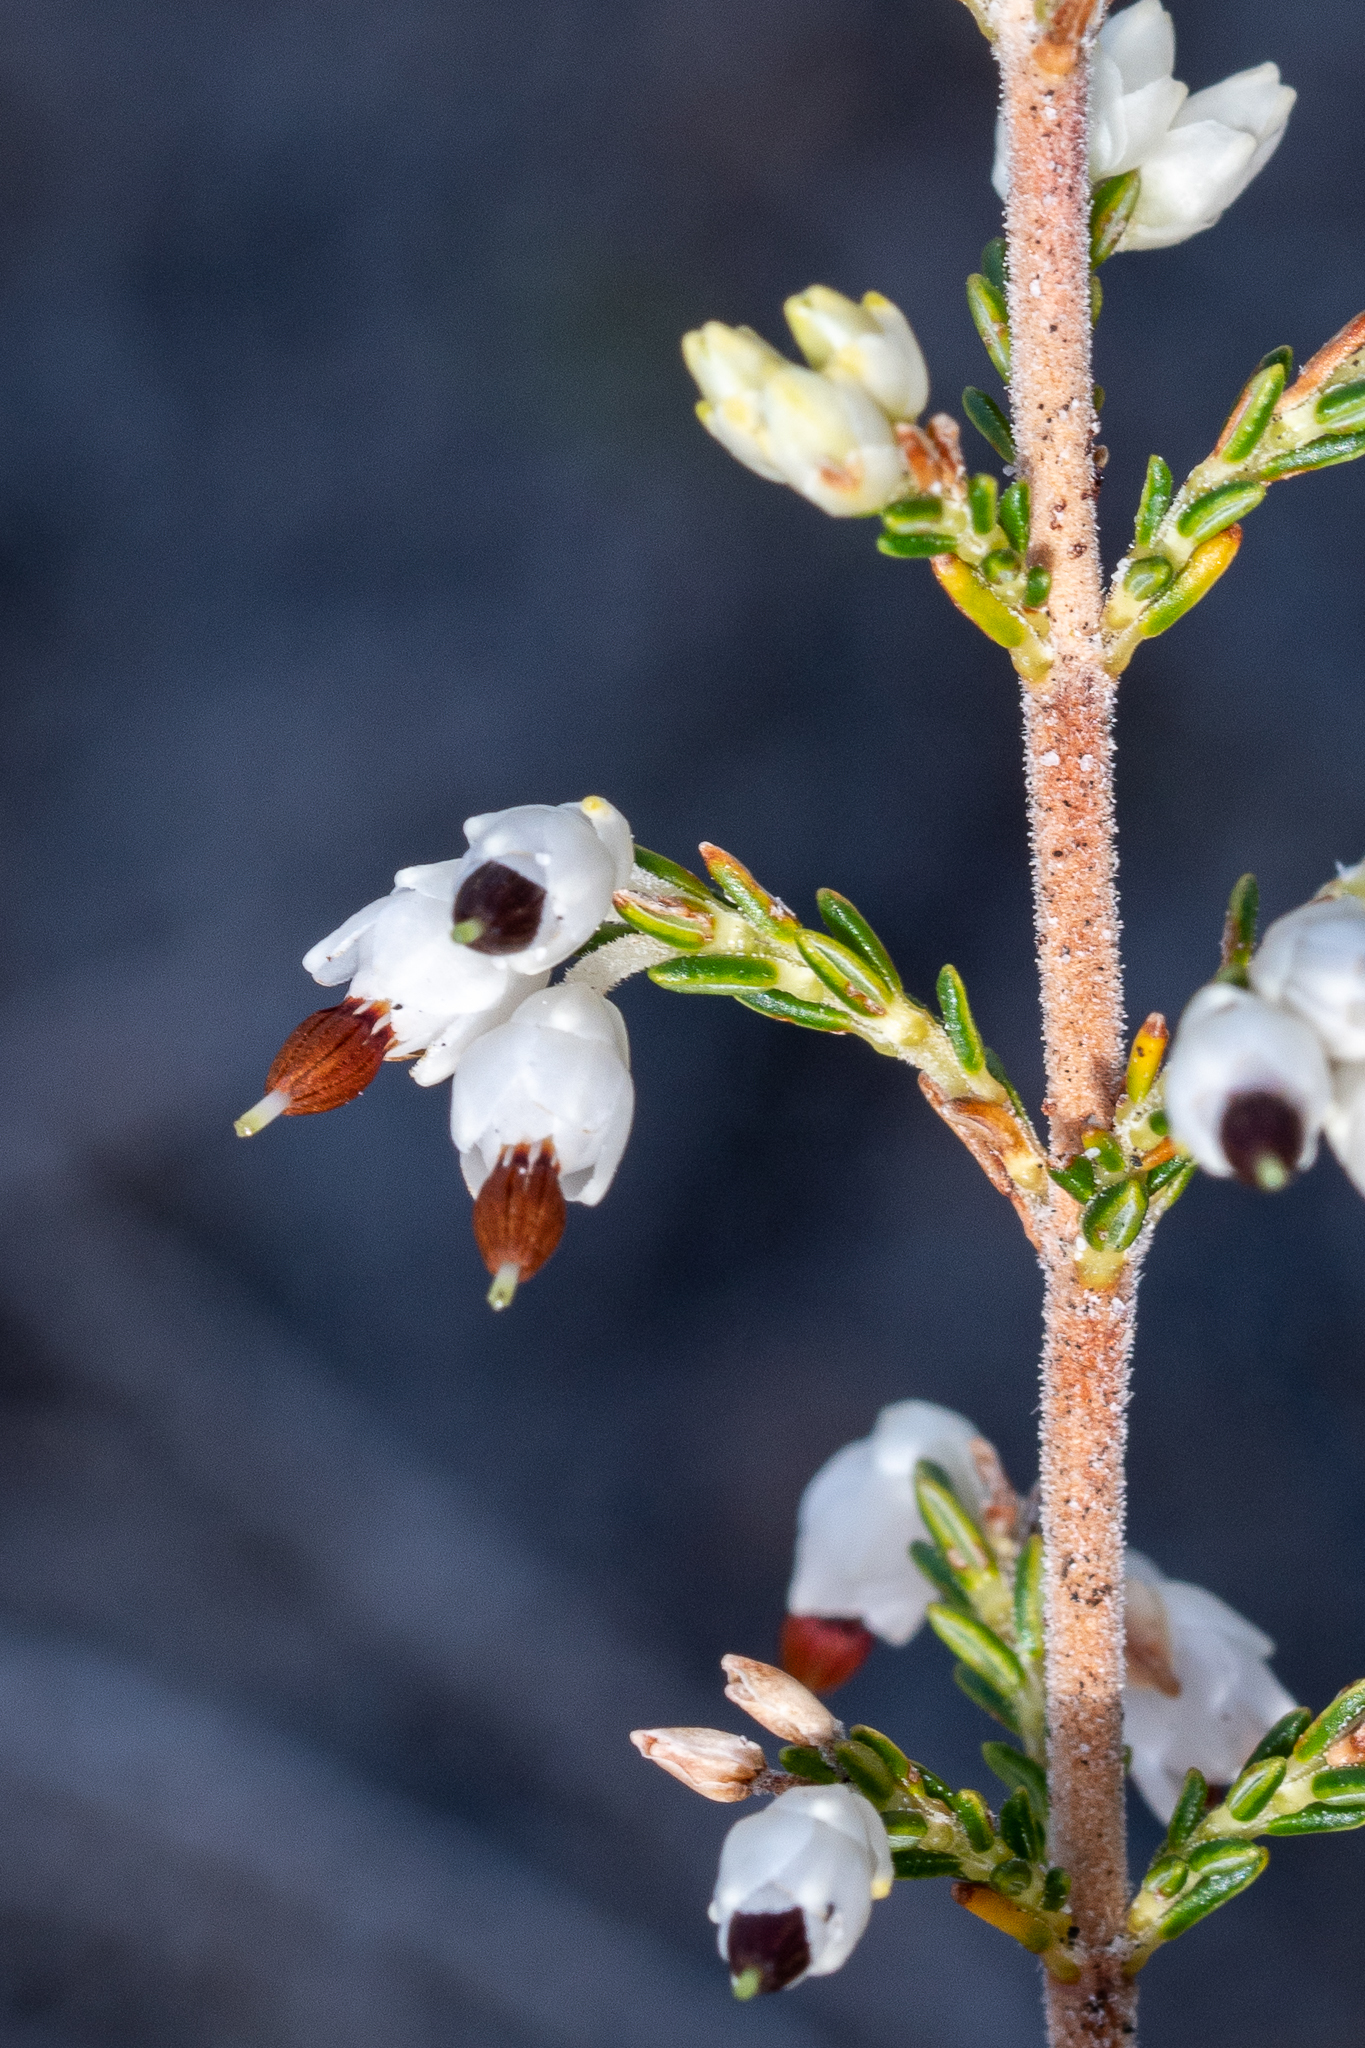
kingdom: Plantae
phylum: Tracheophyta
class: Magnoliopsida
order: Ericales
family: Ericaceae
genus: Erica
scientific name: Erica imbricata
